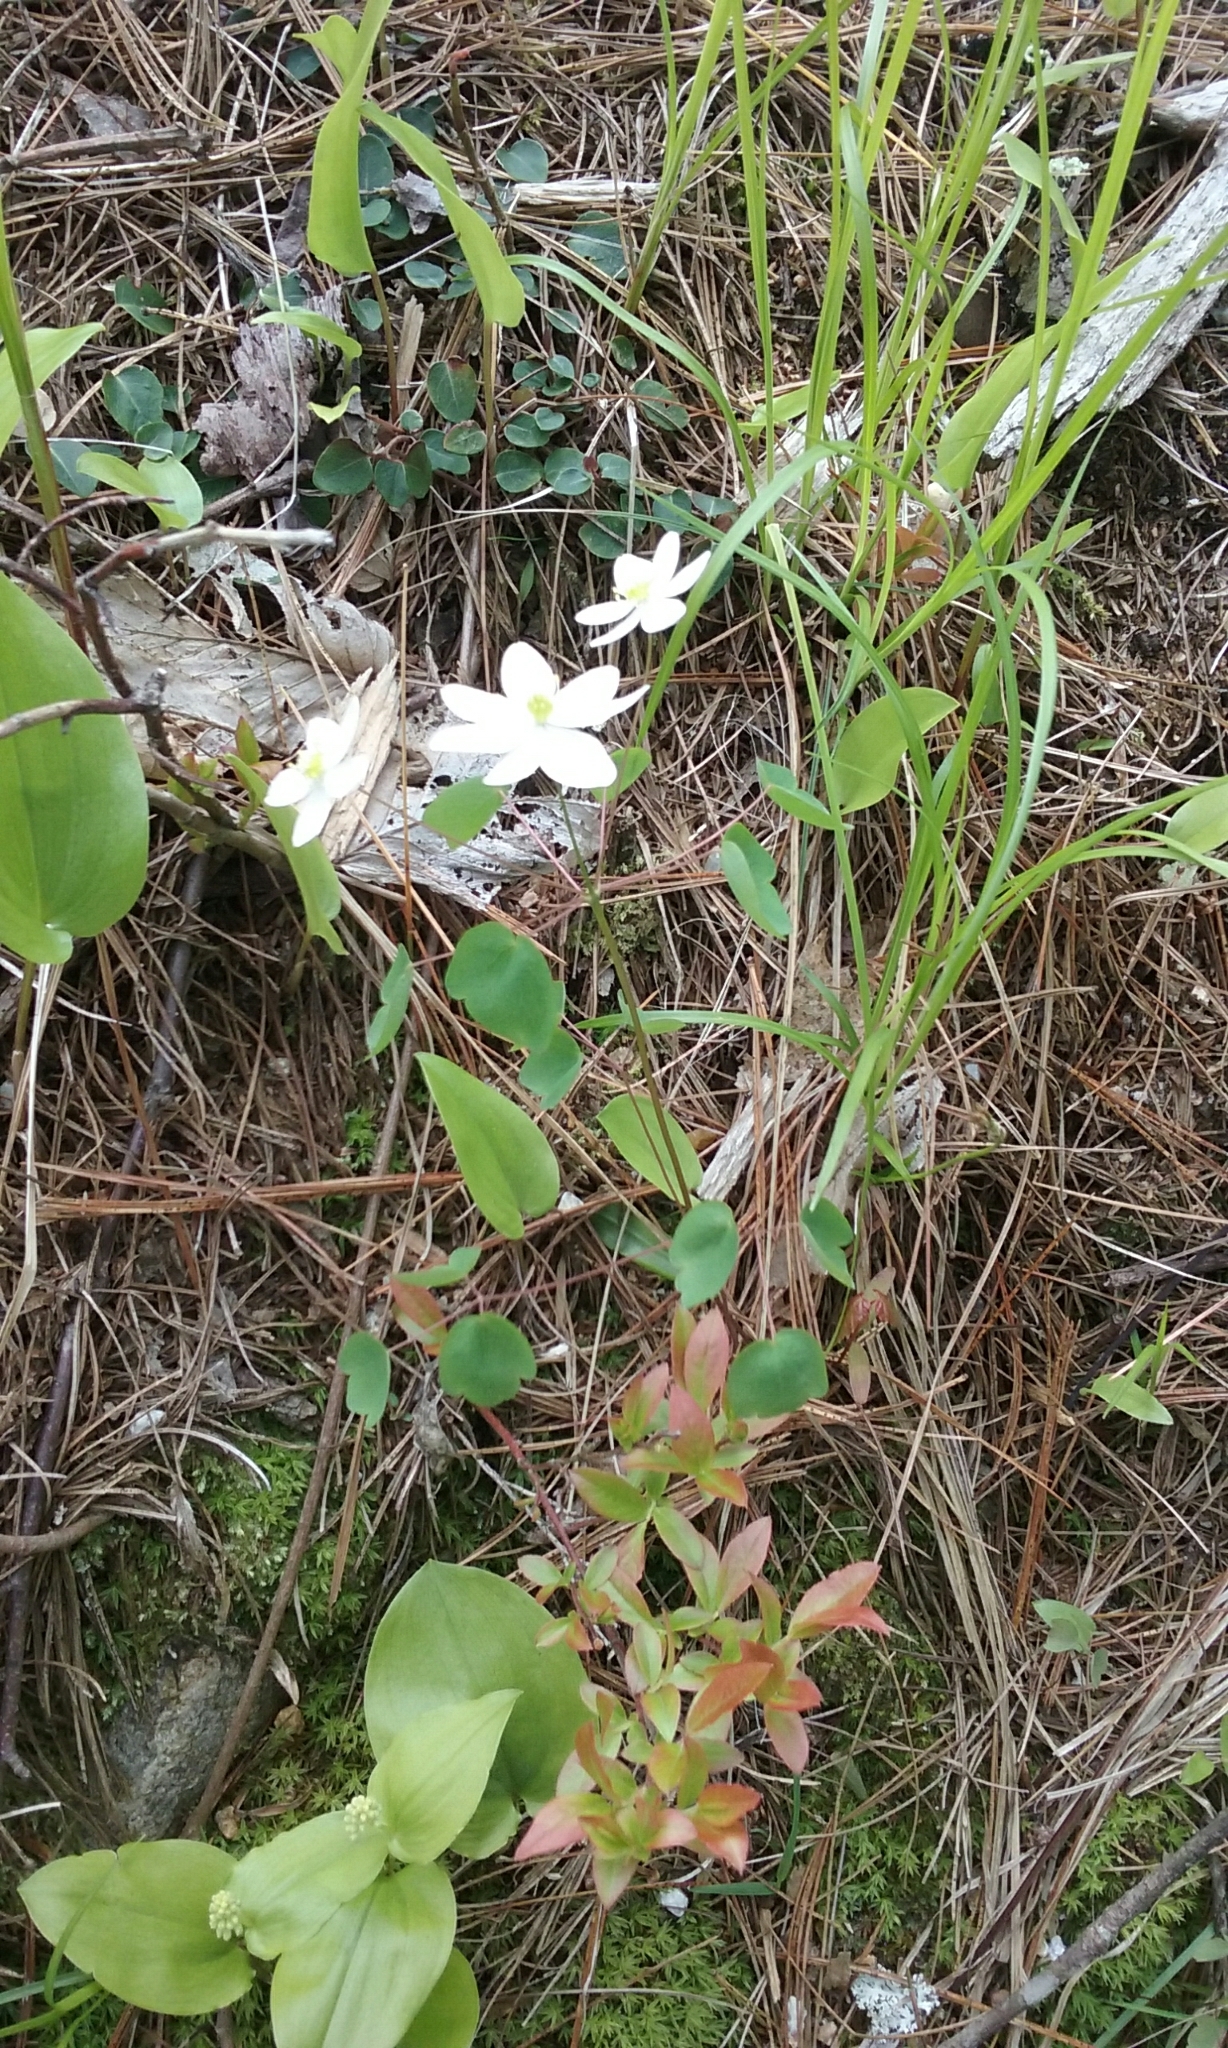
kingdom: Plantae
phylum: Tracheophyta
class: Magnoliopsida
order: Ranunculales
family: Ranunculaceae
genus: Thalictrum
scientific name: Thalictrum thalictroides
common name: Rue-anemone
